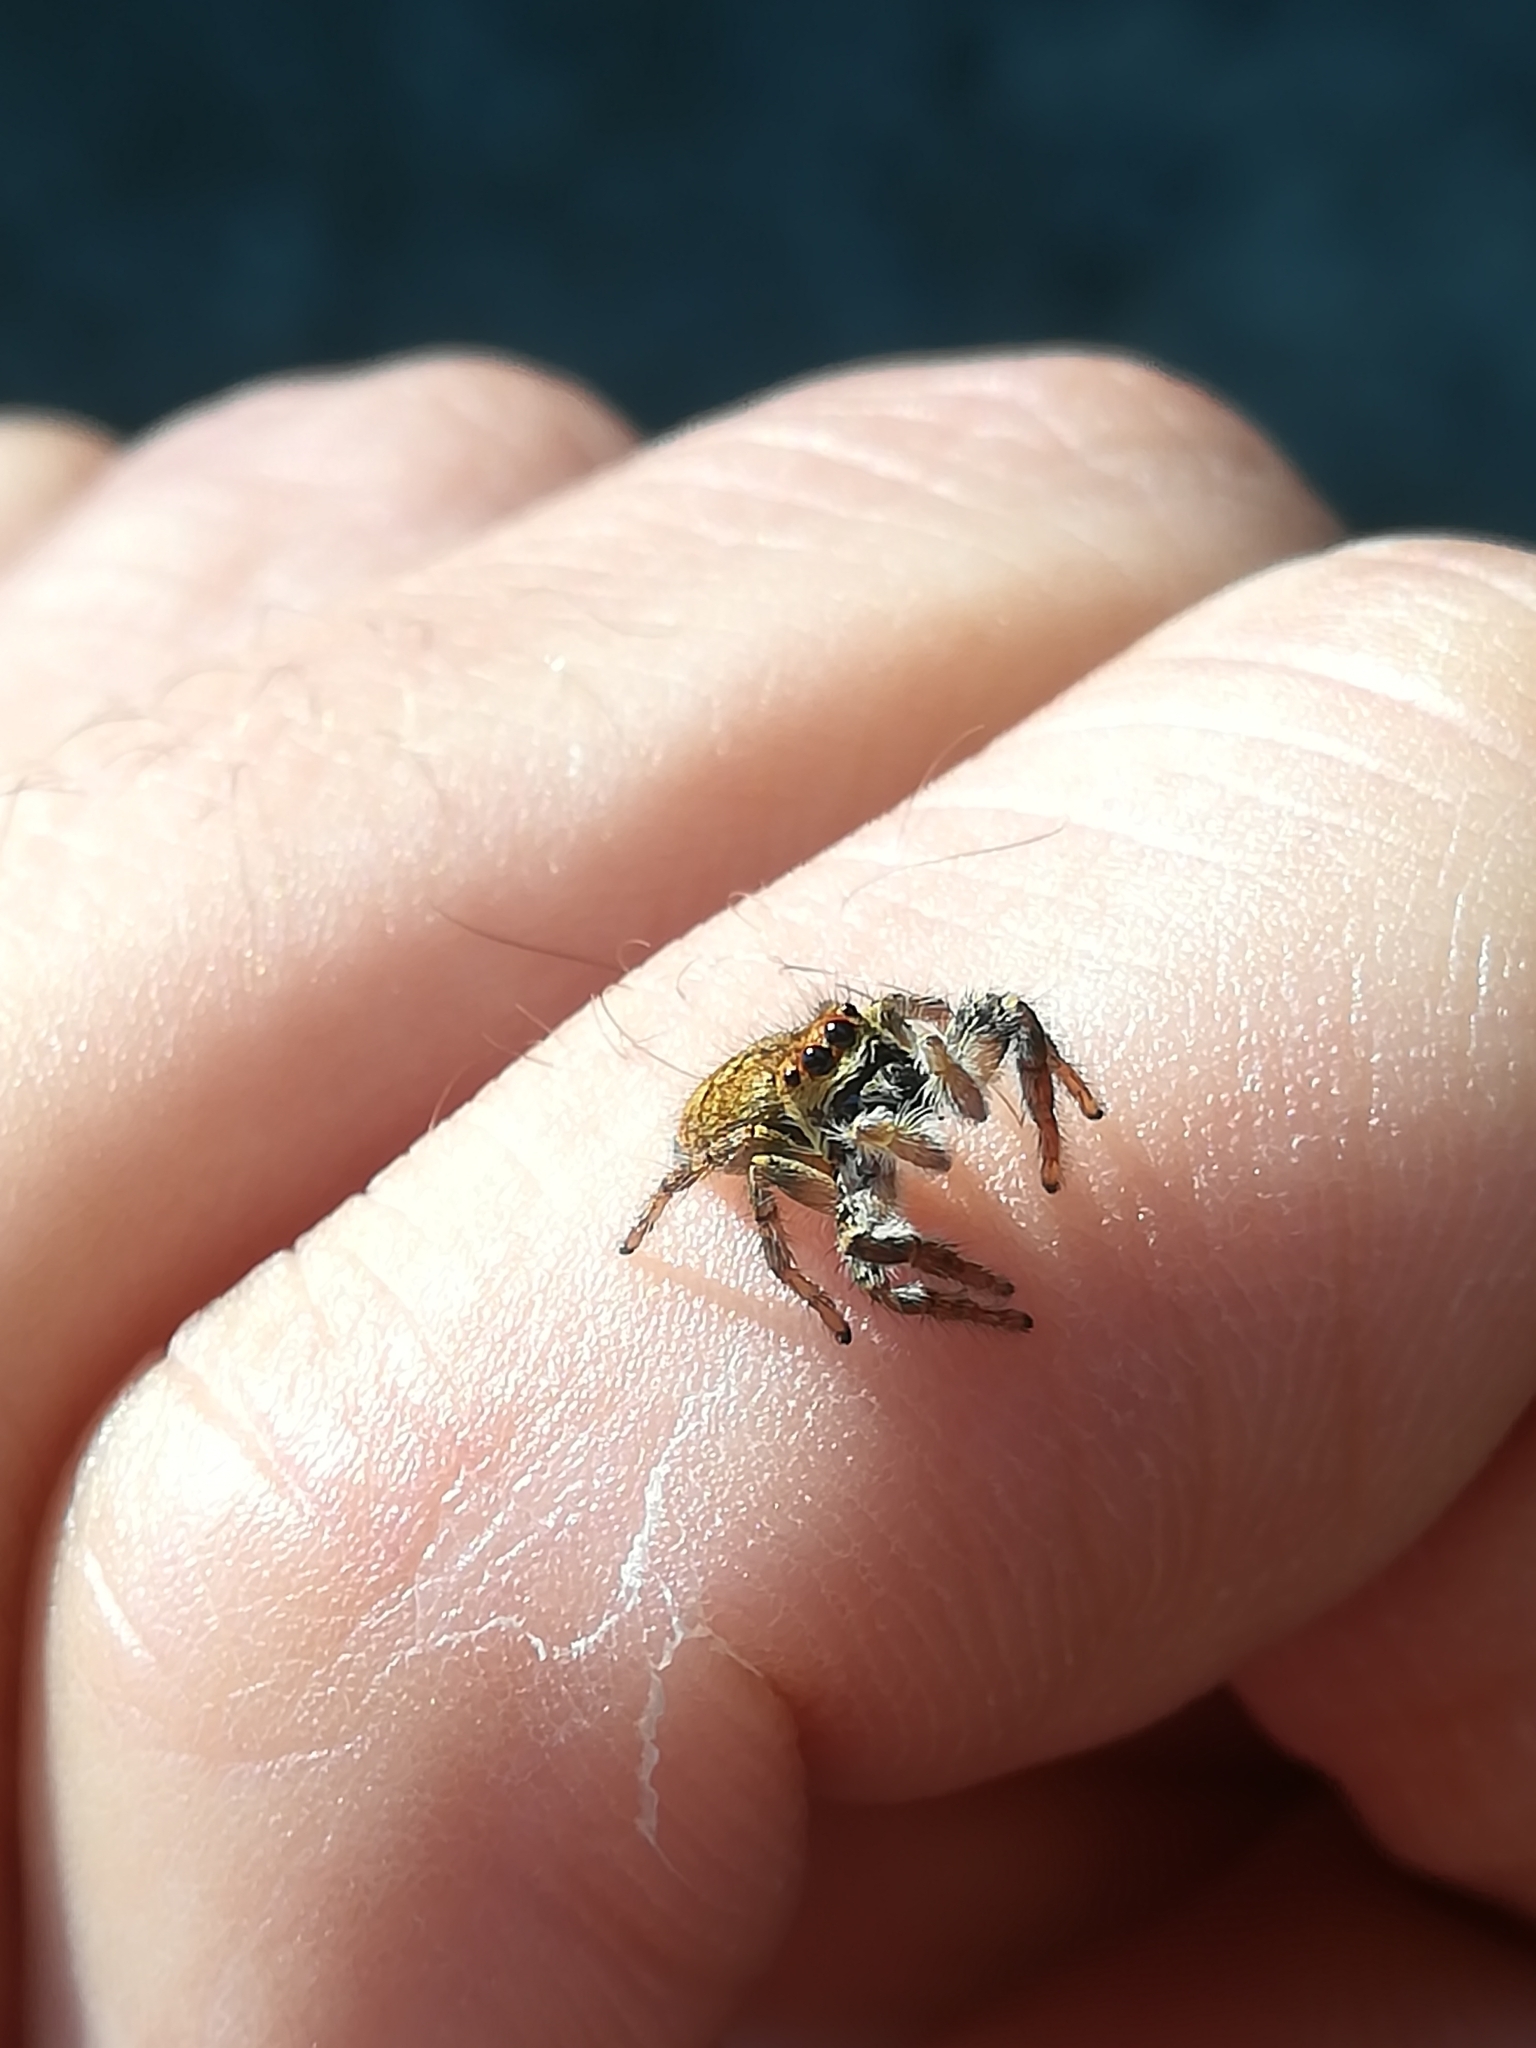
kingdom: Animalia
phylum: Arthropoda
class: Arachnida
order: Araneae
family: Salticidae
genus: Carrhotus
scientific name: Carrhotus xanthogramma
